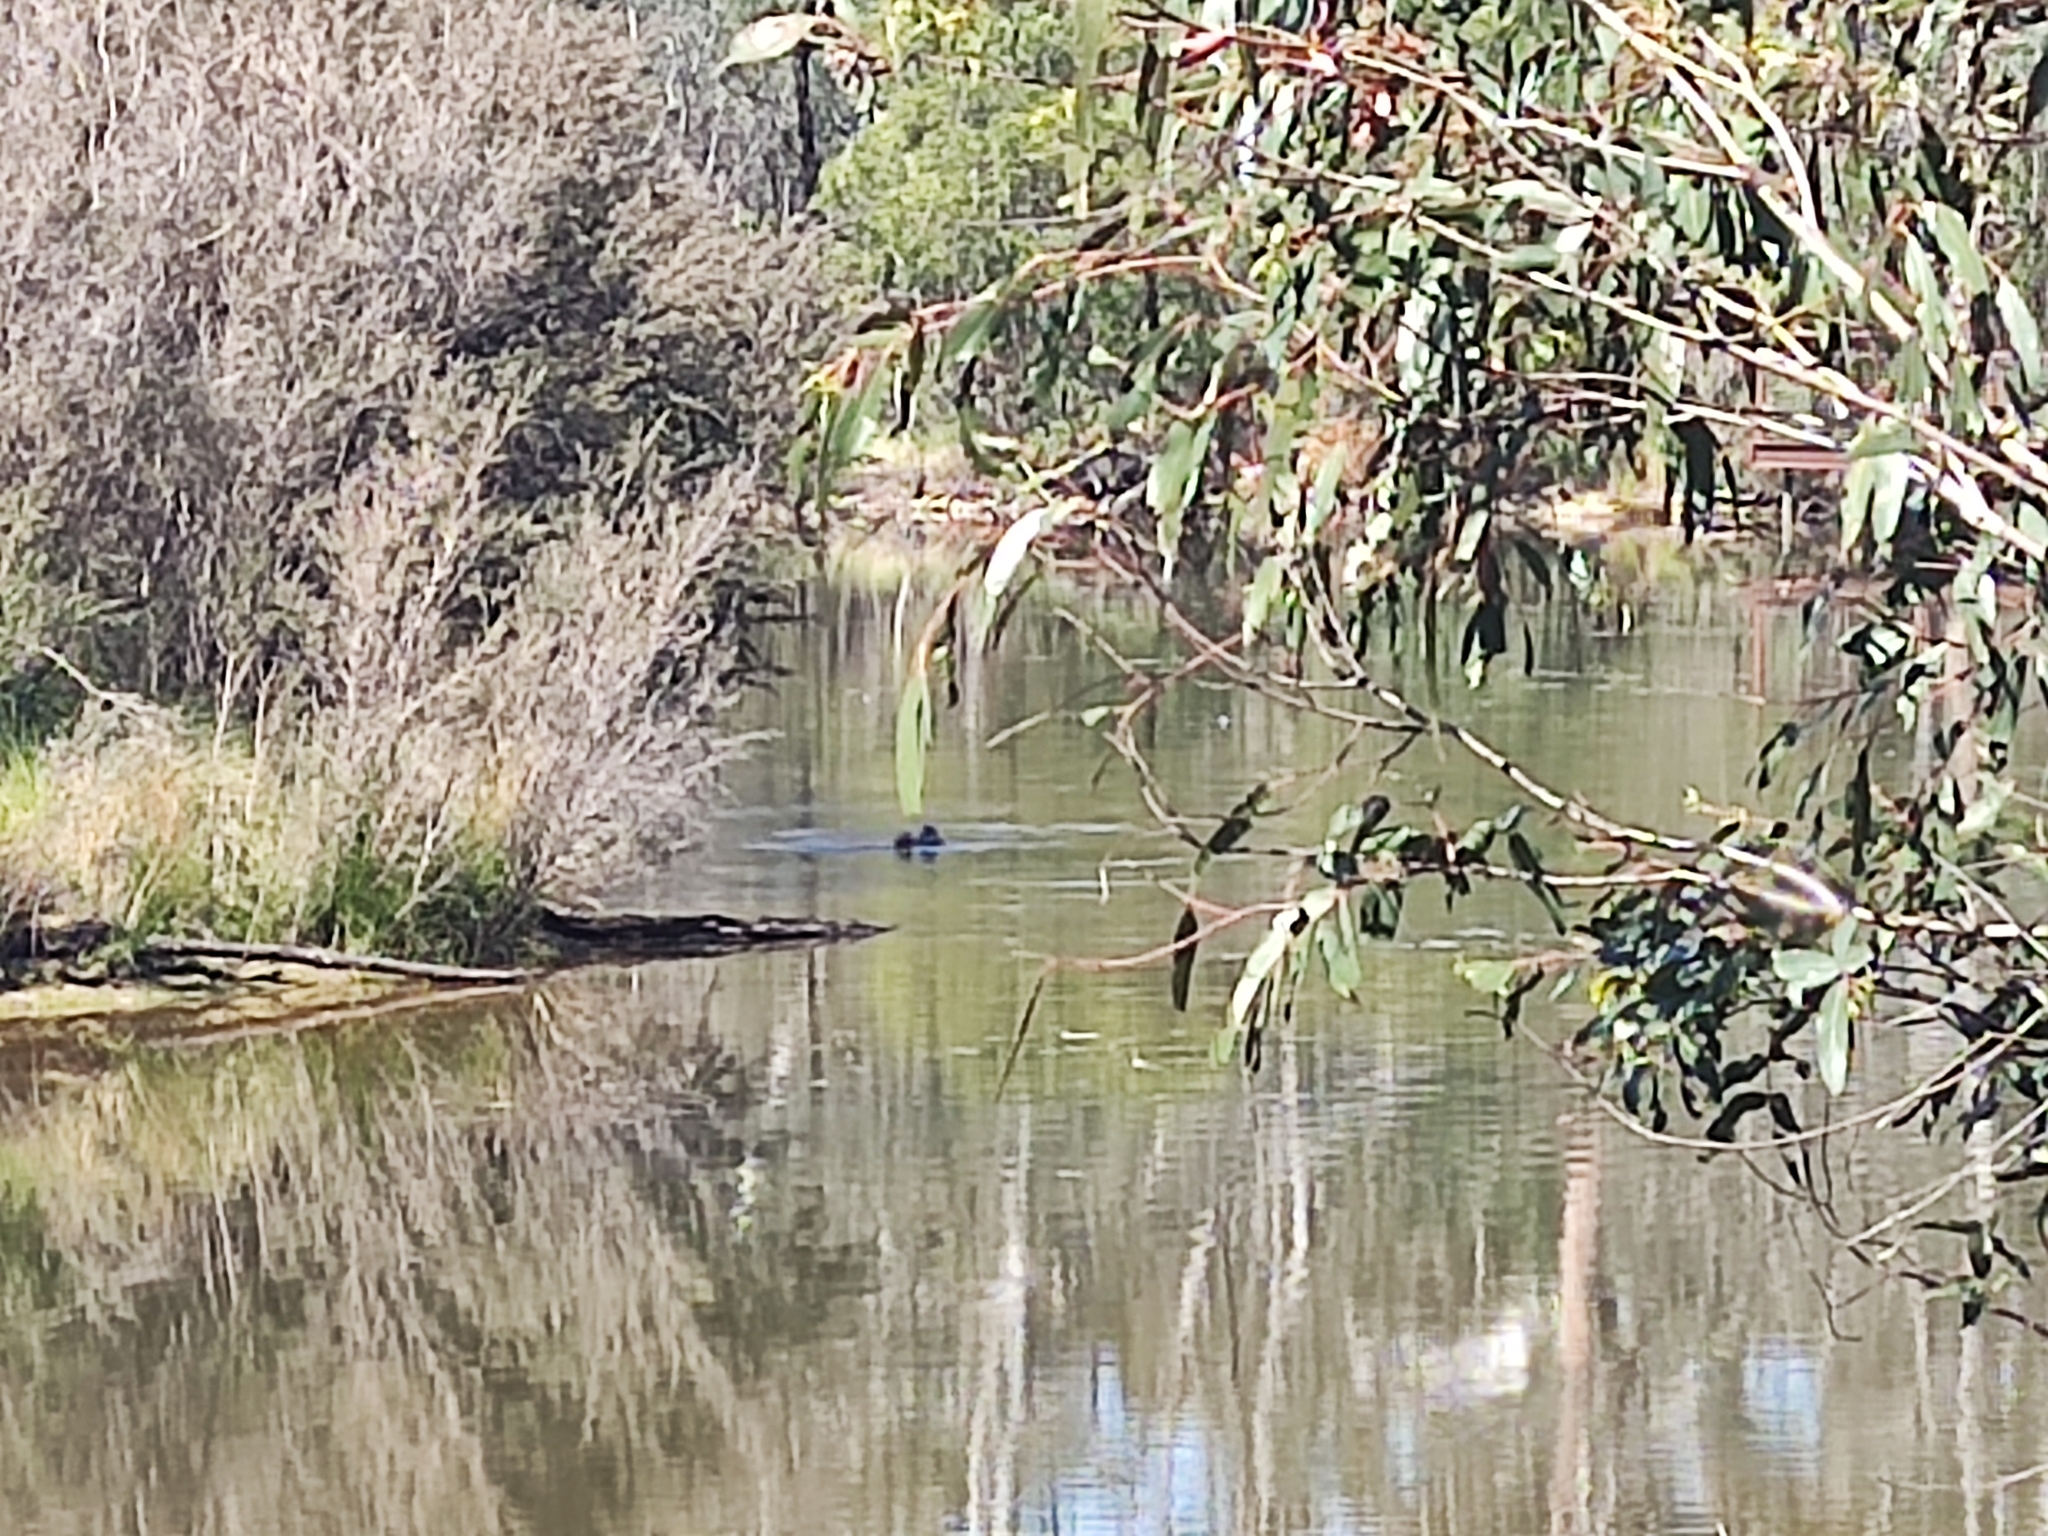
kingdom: Animalia
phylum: Chordata
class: Aves
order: Anseriformes
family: Anatidae
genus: Biziura
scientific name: Biziura lobata
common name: Musk duck
